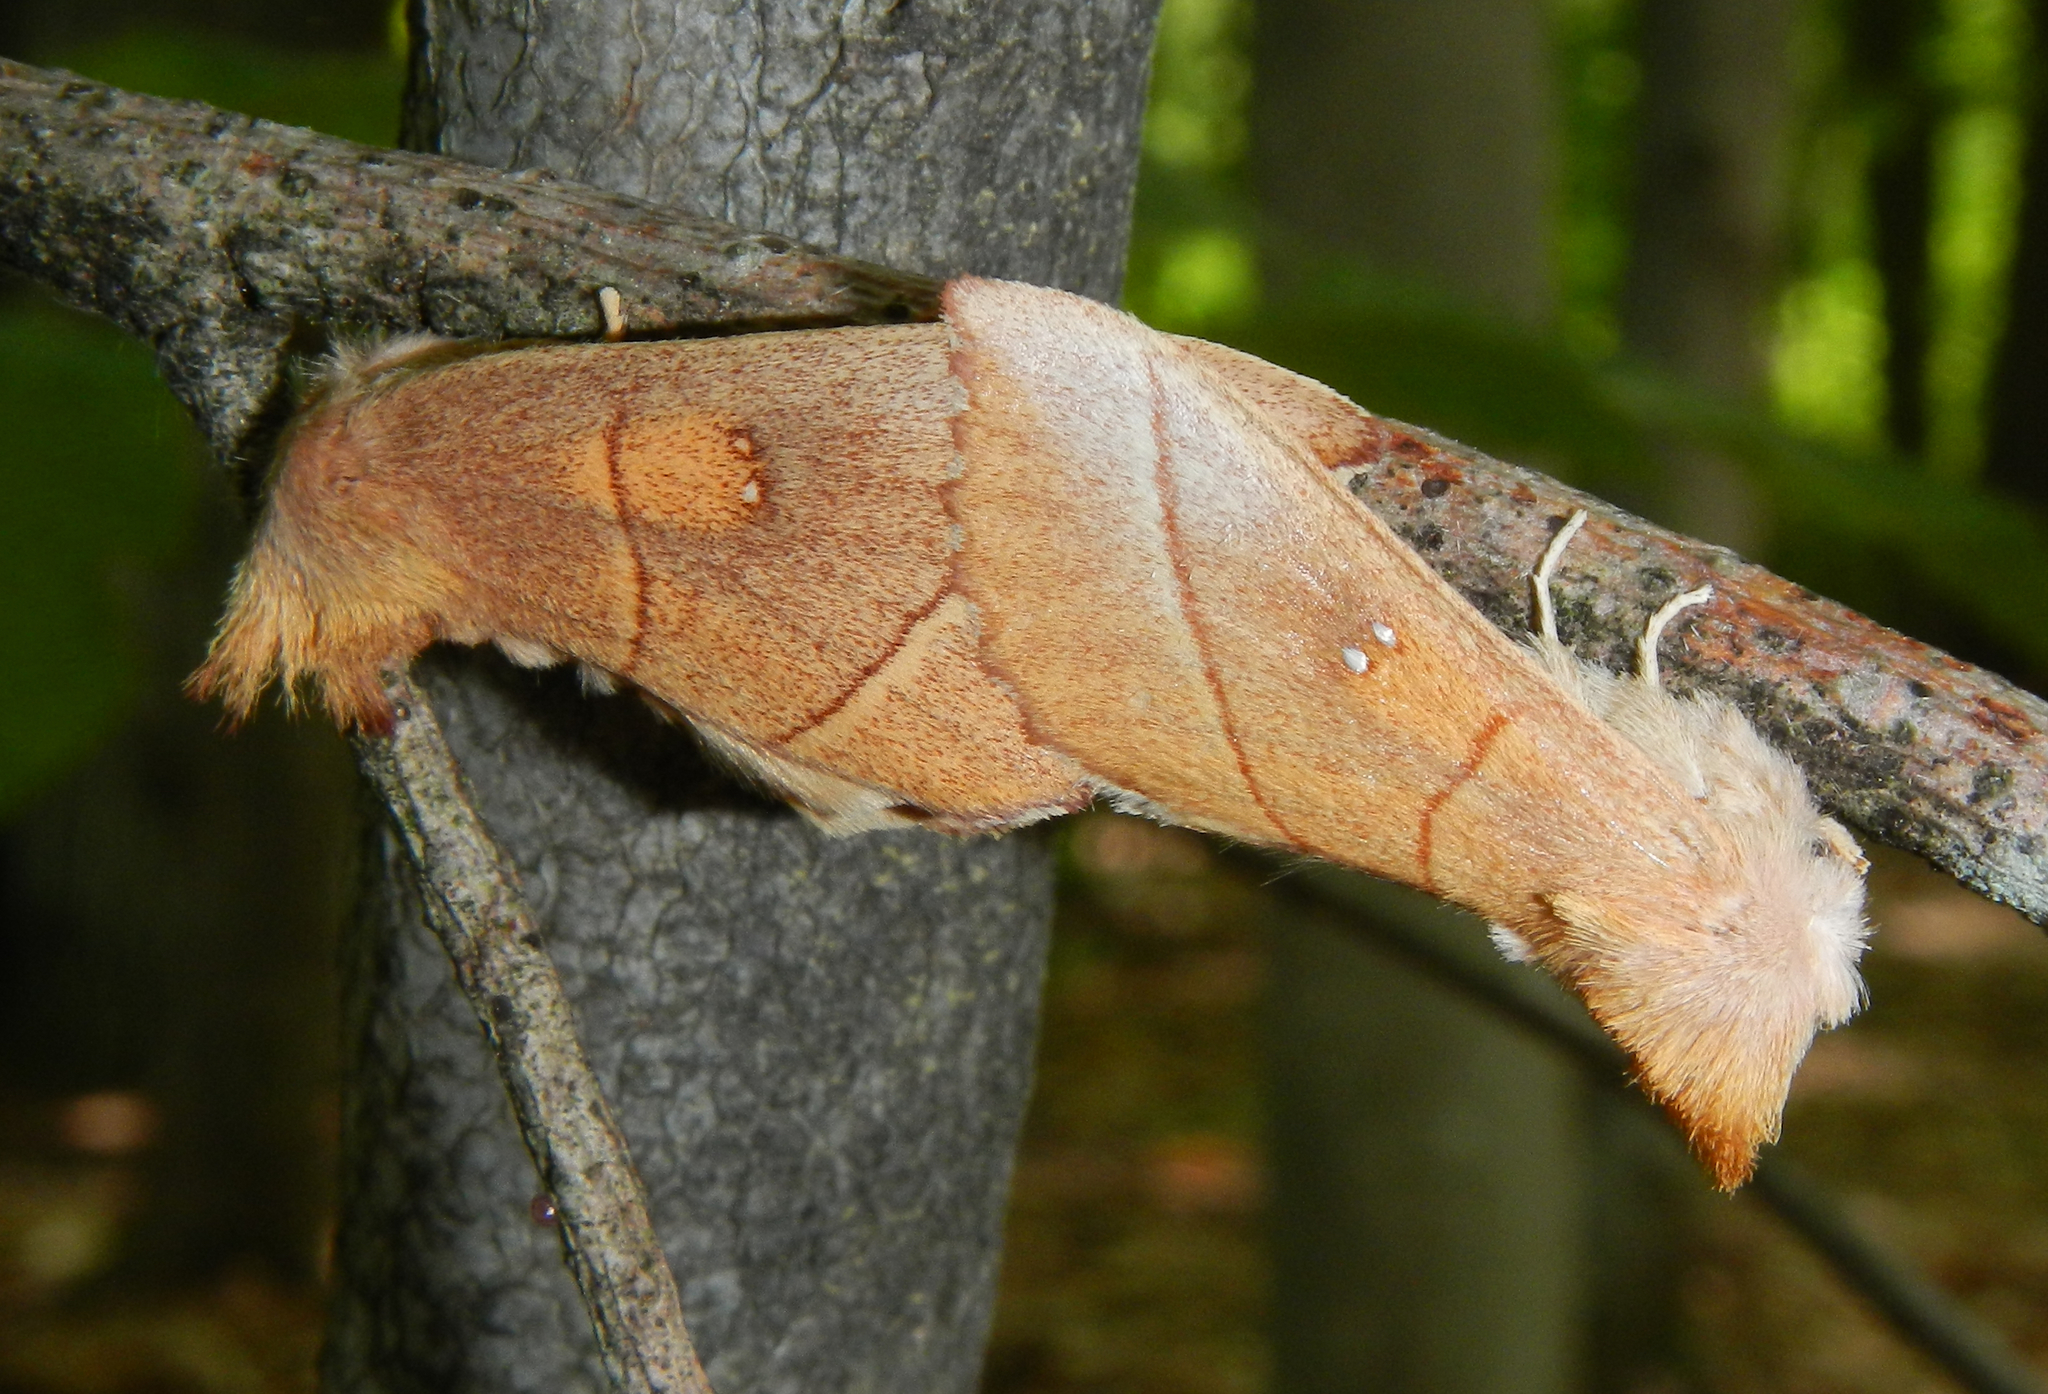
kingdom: Animalia
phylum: Arthropoda
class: Insecta
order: Lepidoptera
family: Notodontidae
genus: Nadata
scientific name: Nadata gibbosa
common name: White-dotted prominent
